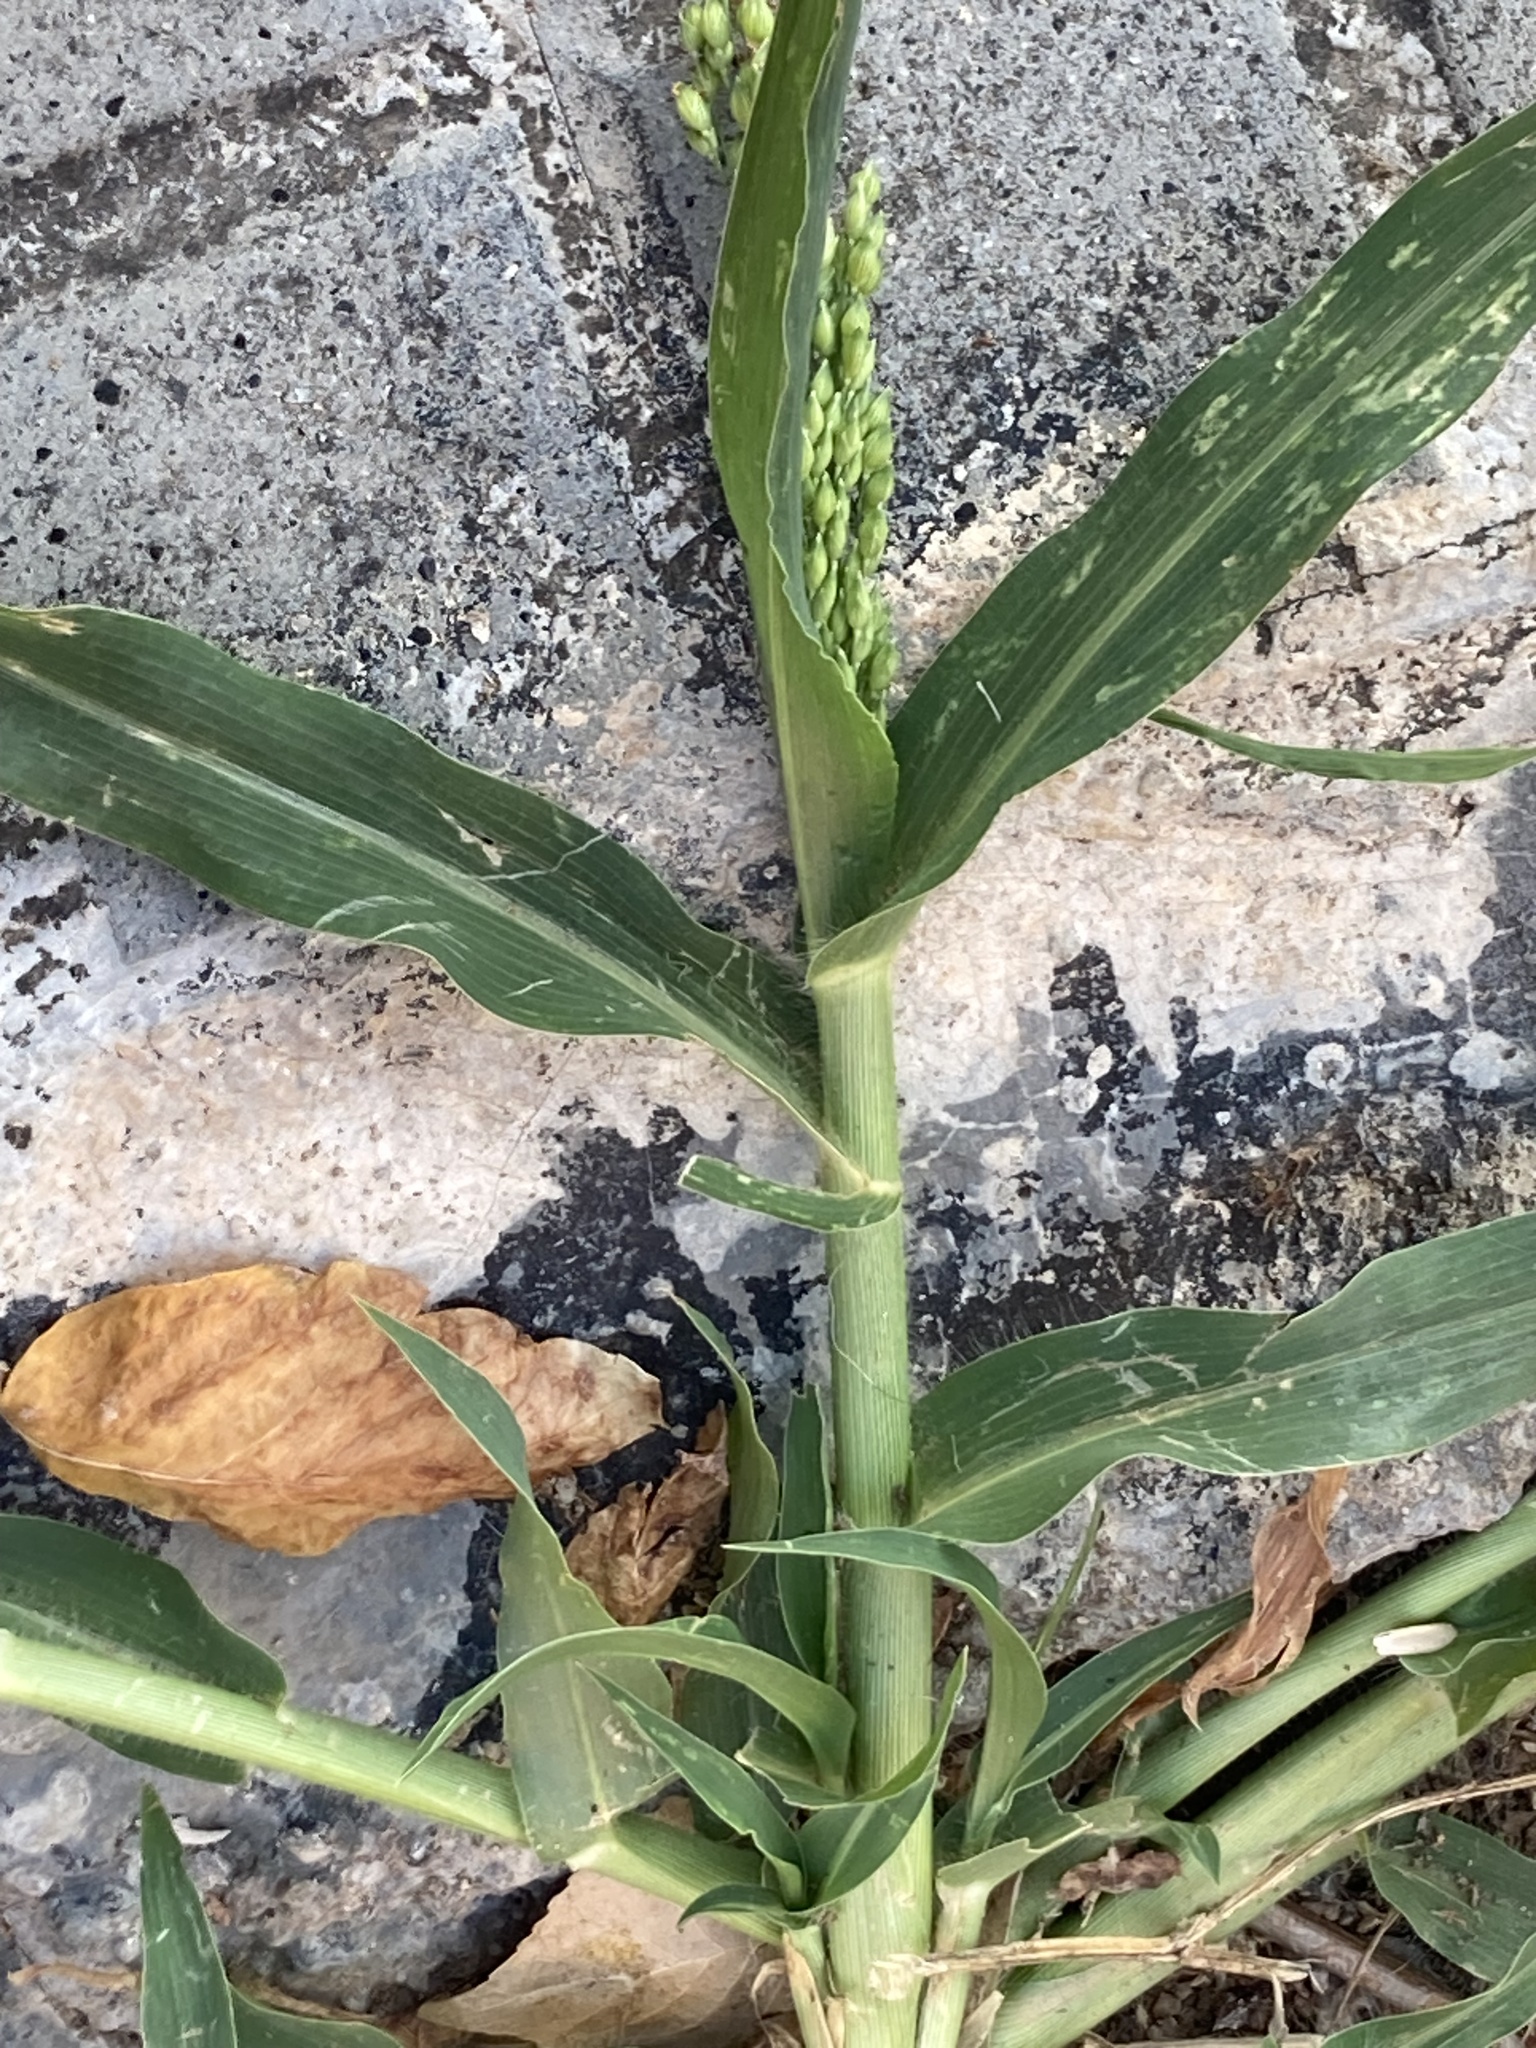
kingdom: Plantae
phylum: Tracheophyta
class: Liliopsida
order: Poales
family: Poaceae
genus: Panicum
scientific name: Panicum miliaceum
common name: Common millet
